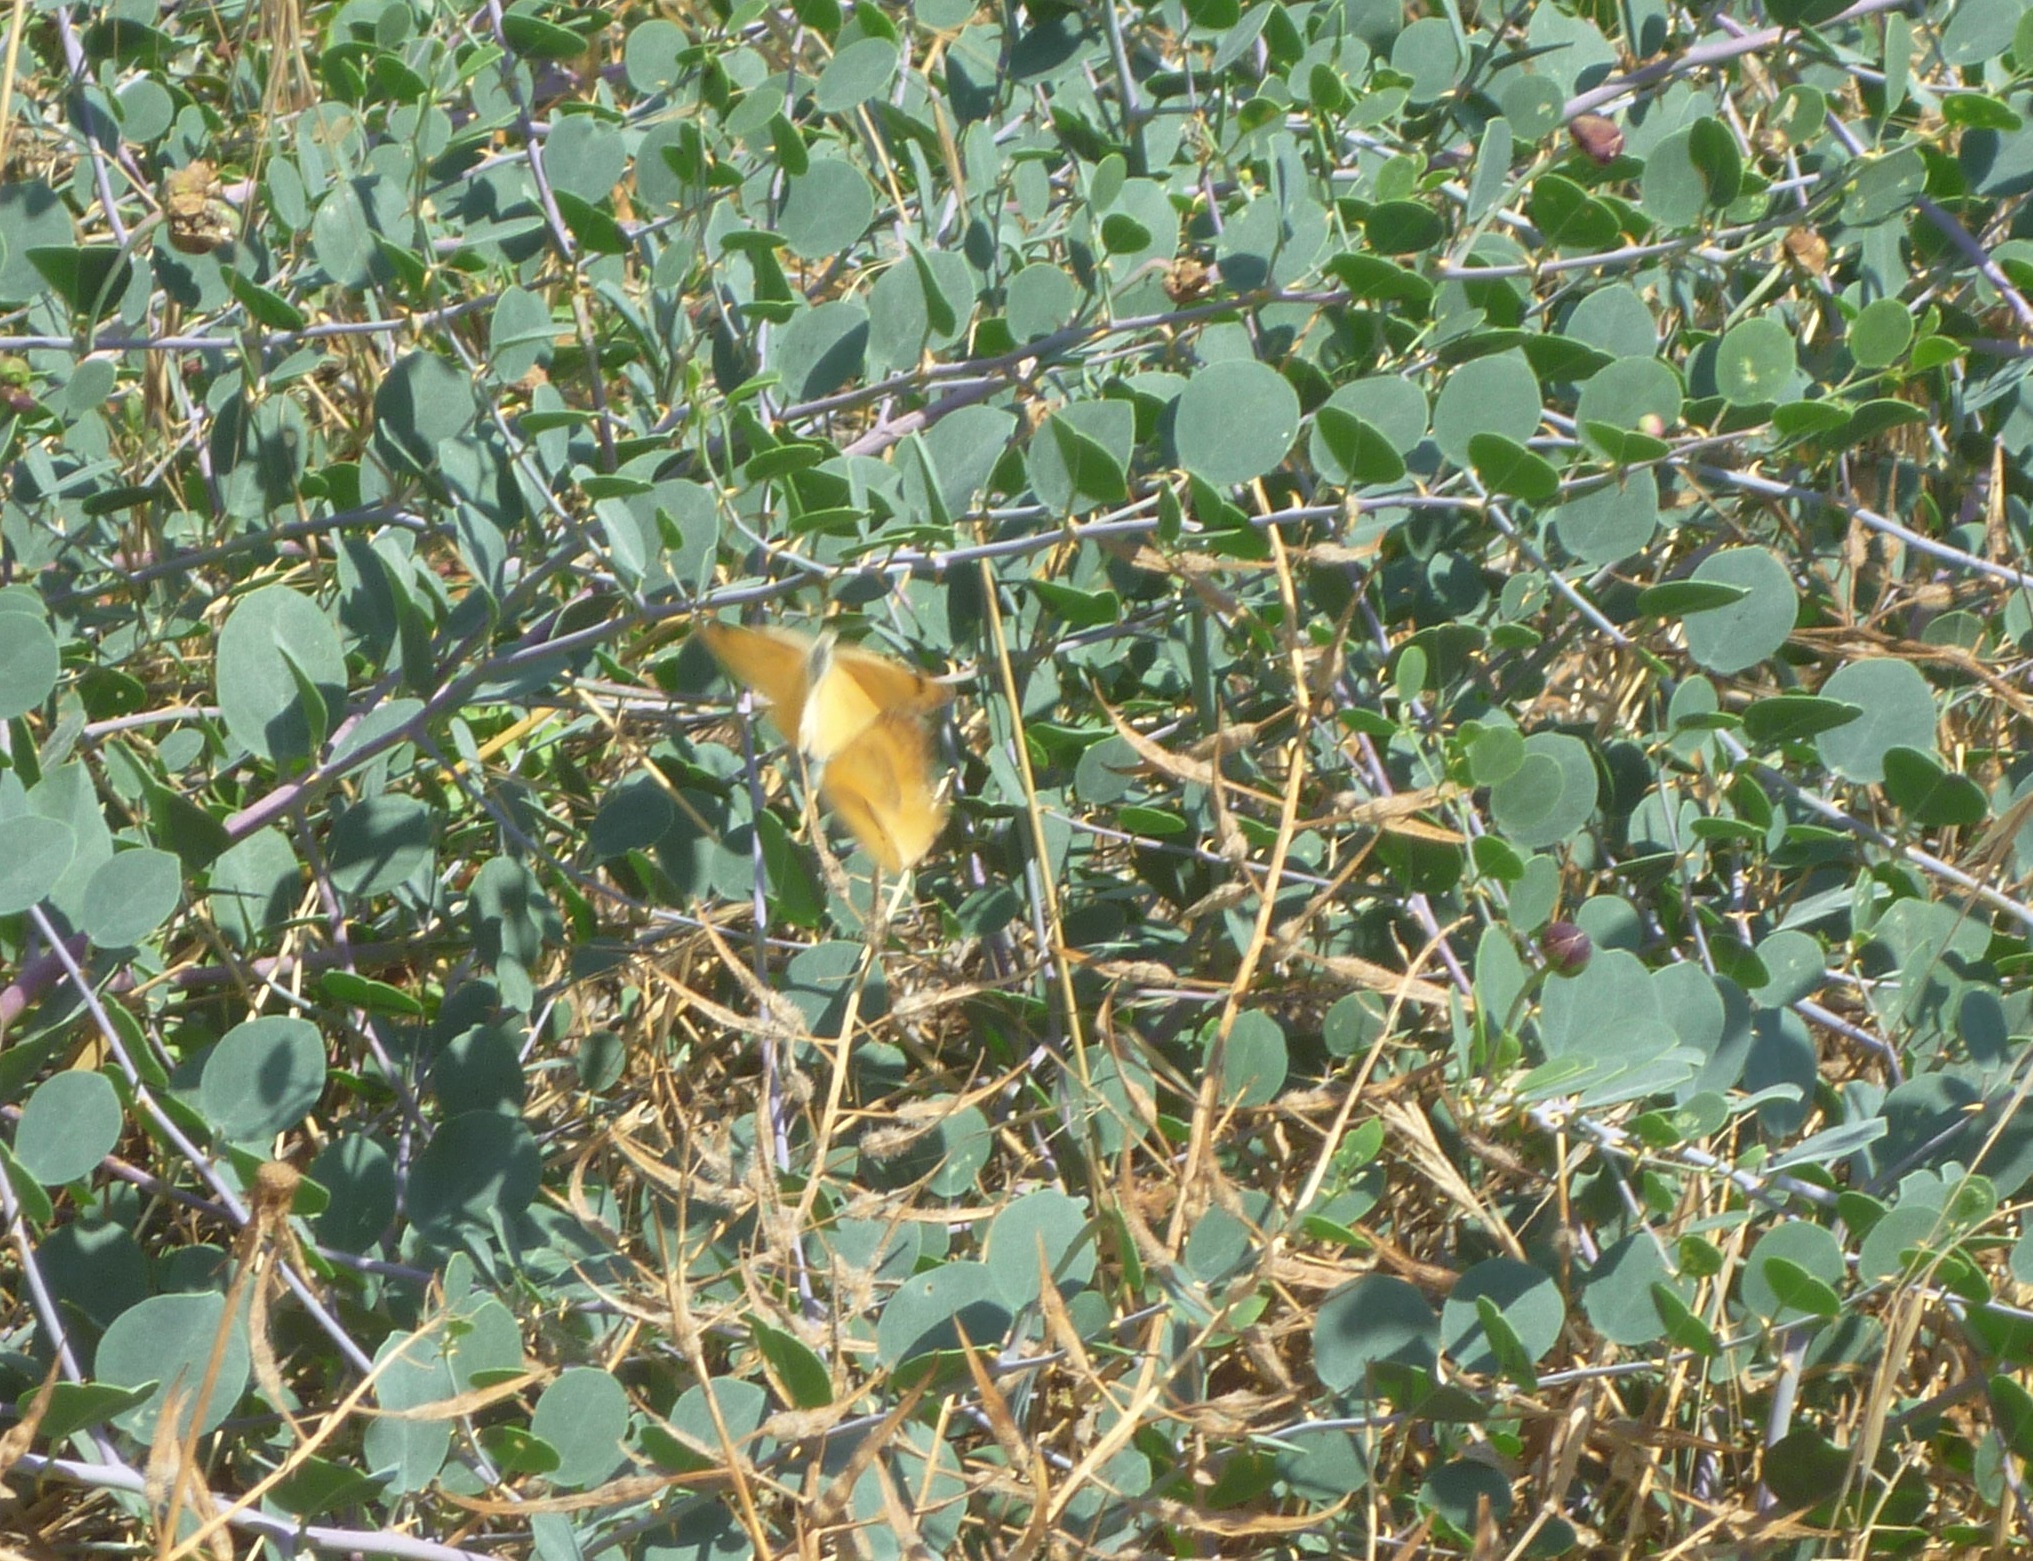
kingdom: Animalia
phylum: Arthropoda
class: Insecta
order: Lepidoptera
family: Pieridae
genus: Colotis
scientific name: Colotis fausta
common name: Large salmon arab
